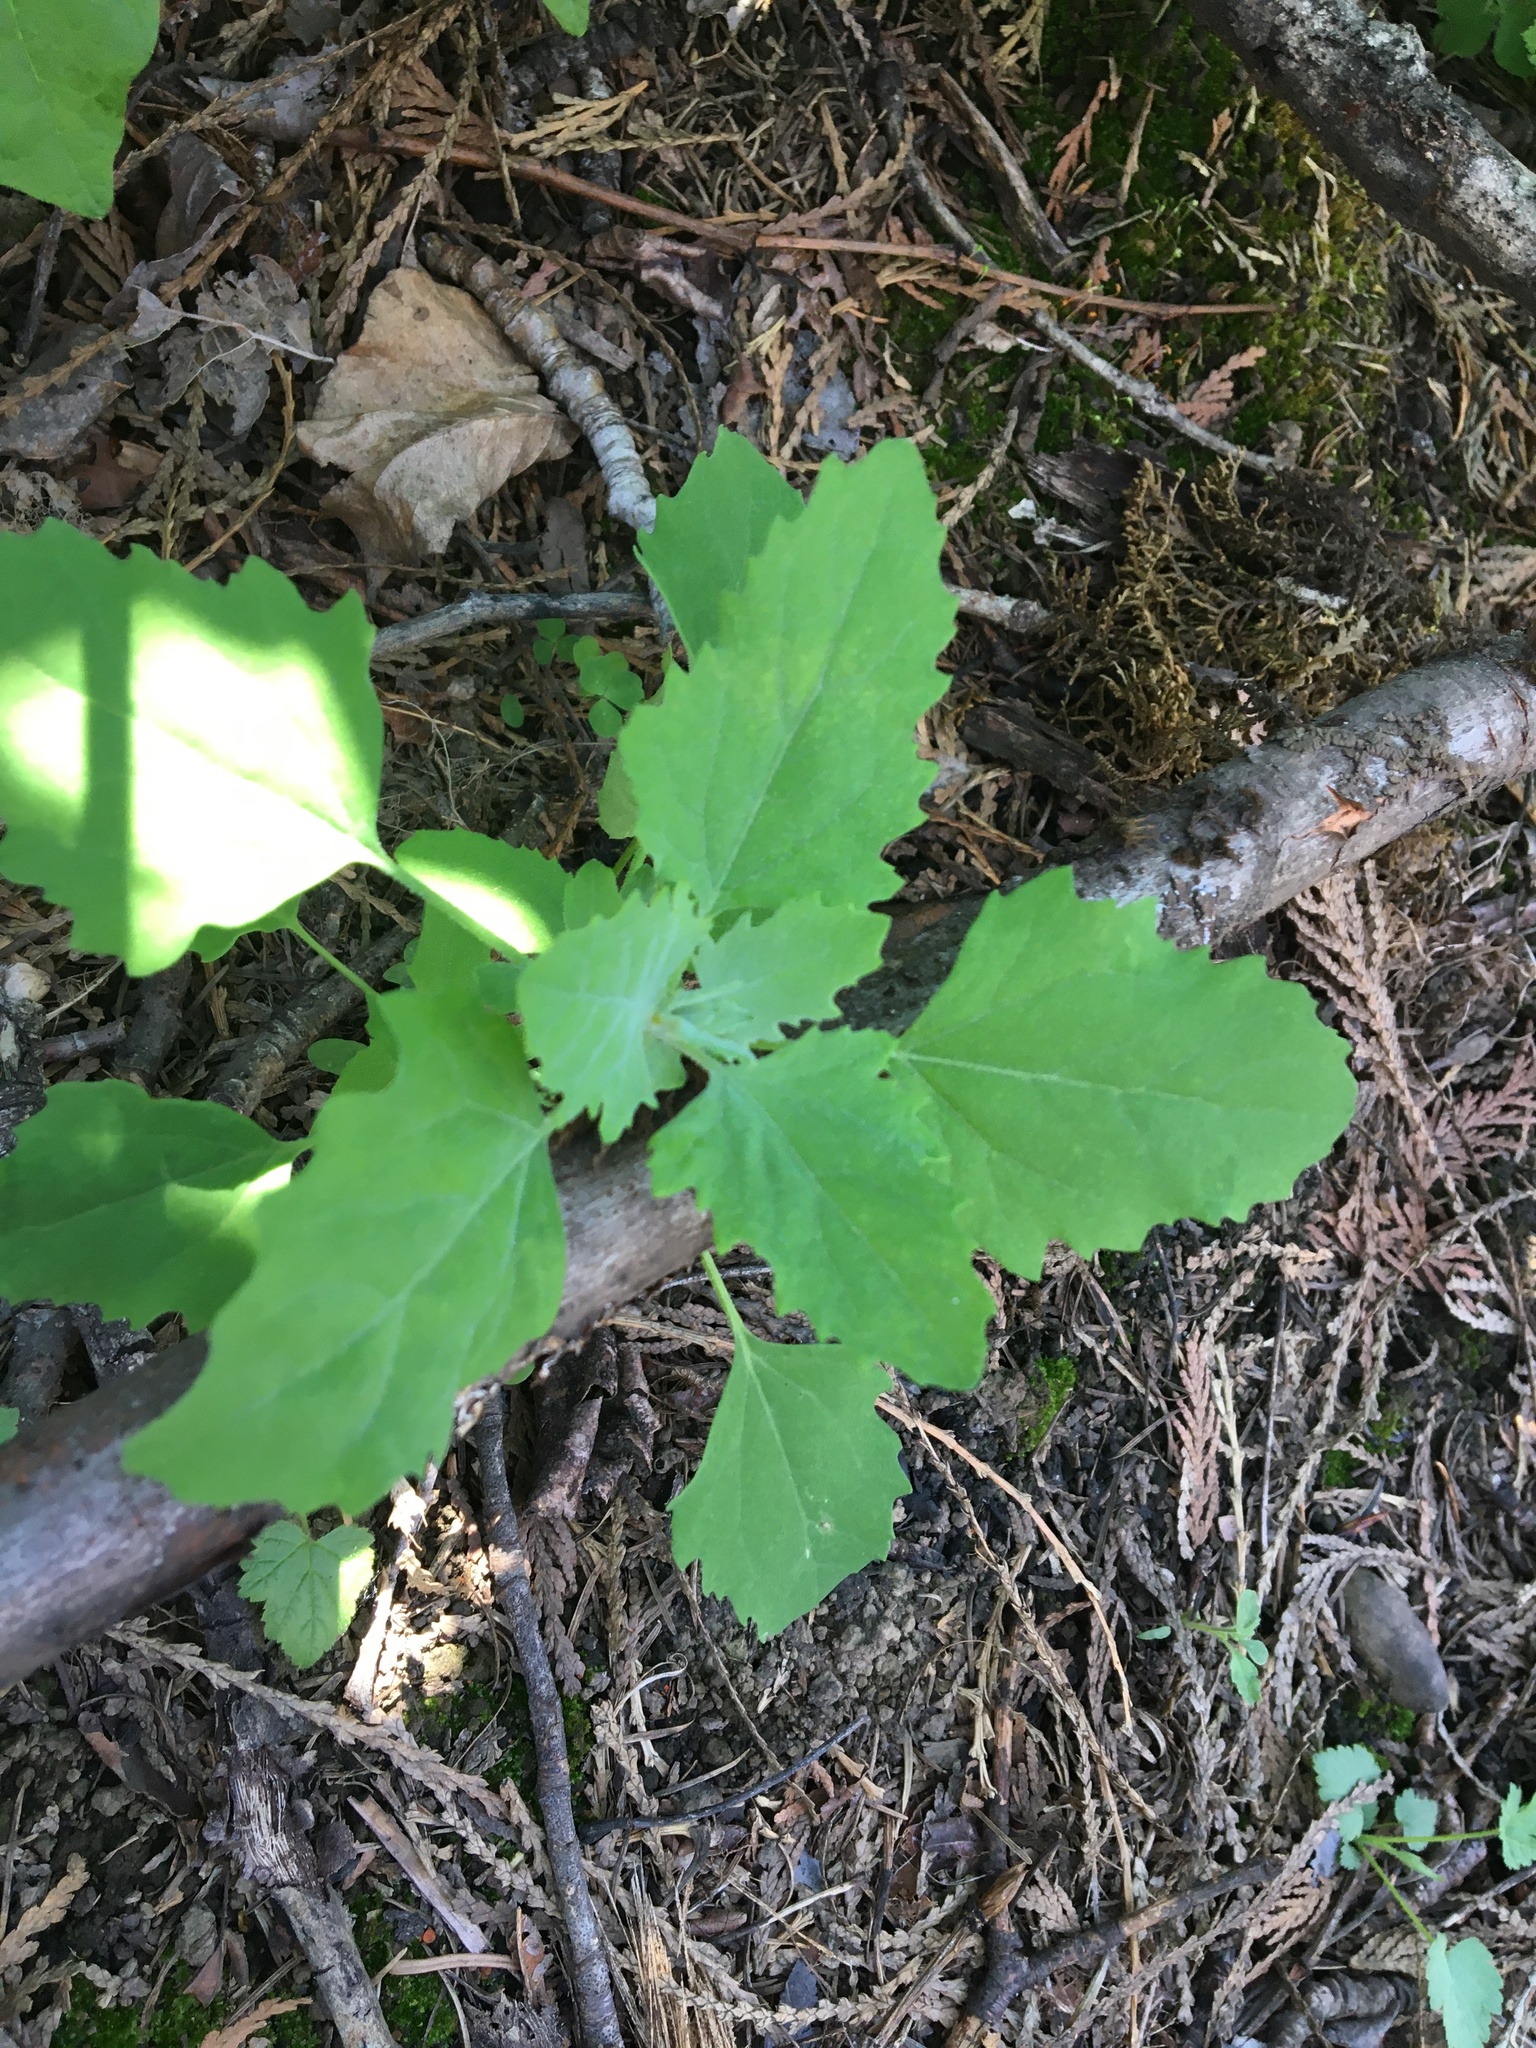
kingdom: Plantae
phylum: Tracheophyta
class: Magnoliopsida
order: Caryophyllales
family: Amaranthaceae
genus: Chenopodium
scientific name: Chenopodium album
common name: Fat-hen
